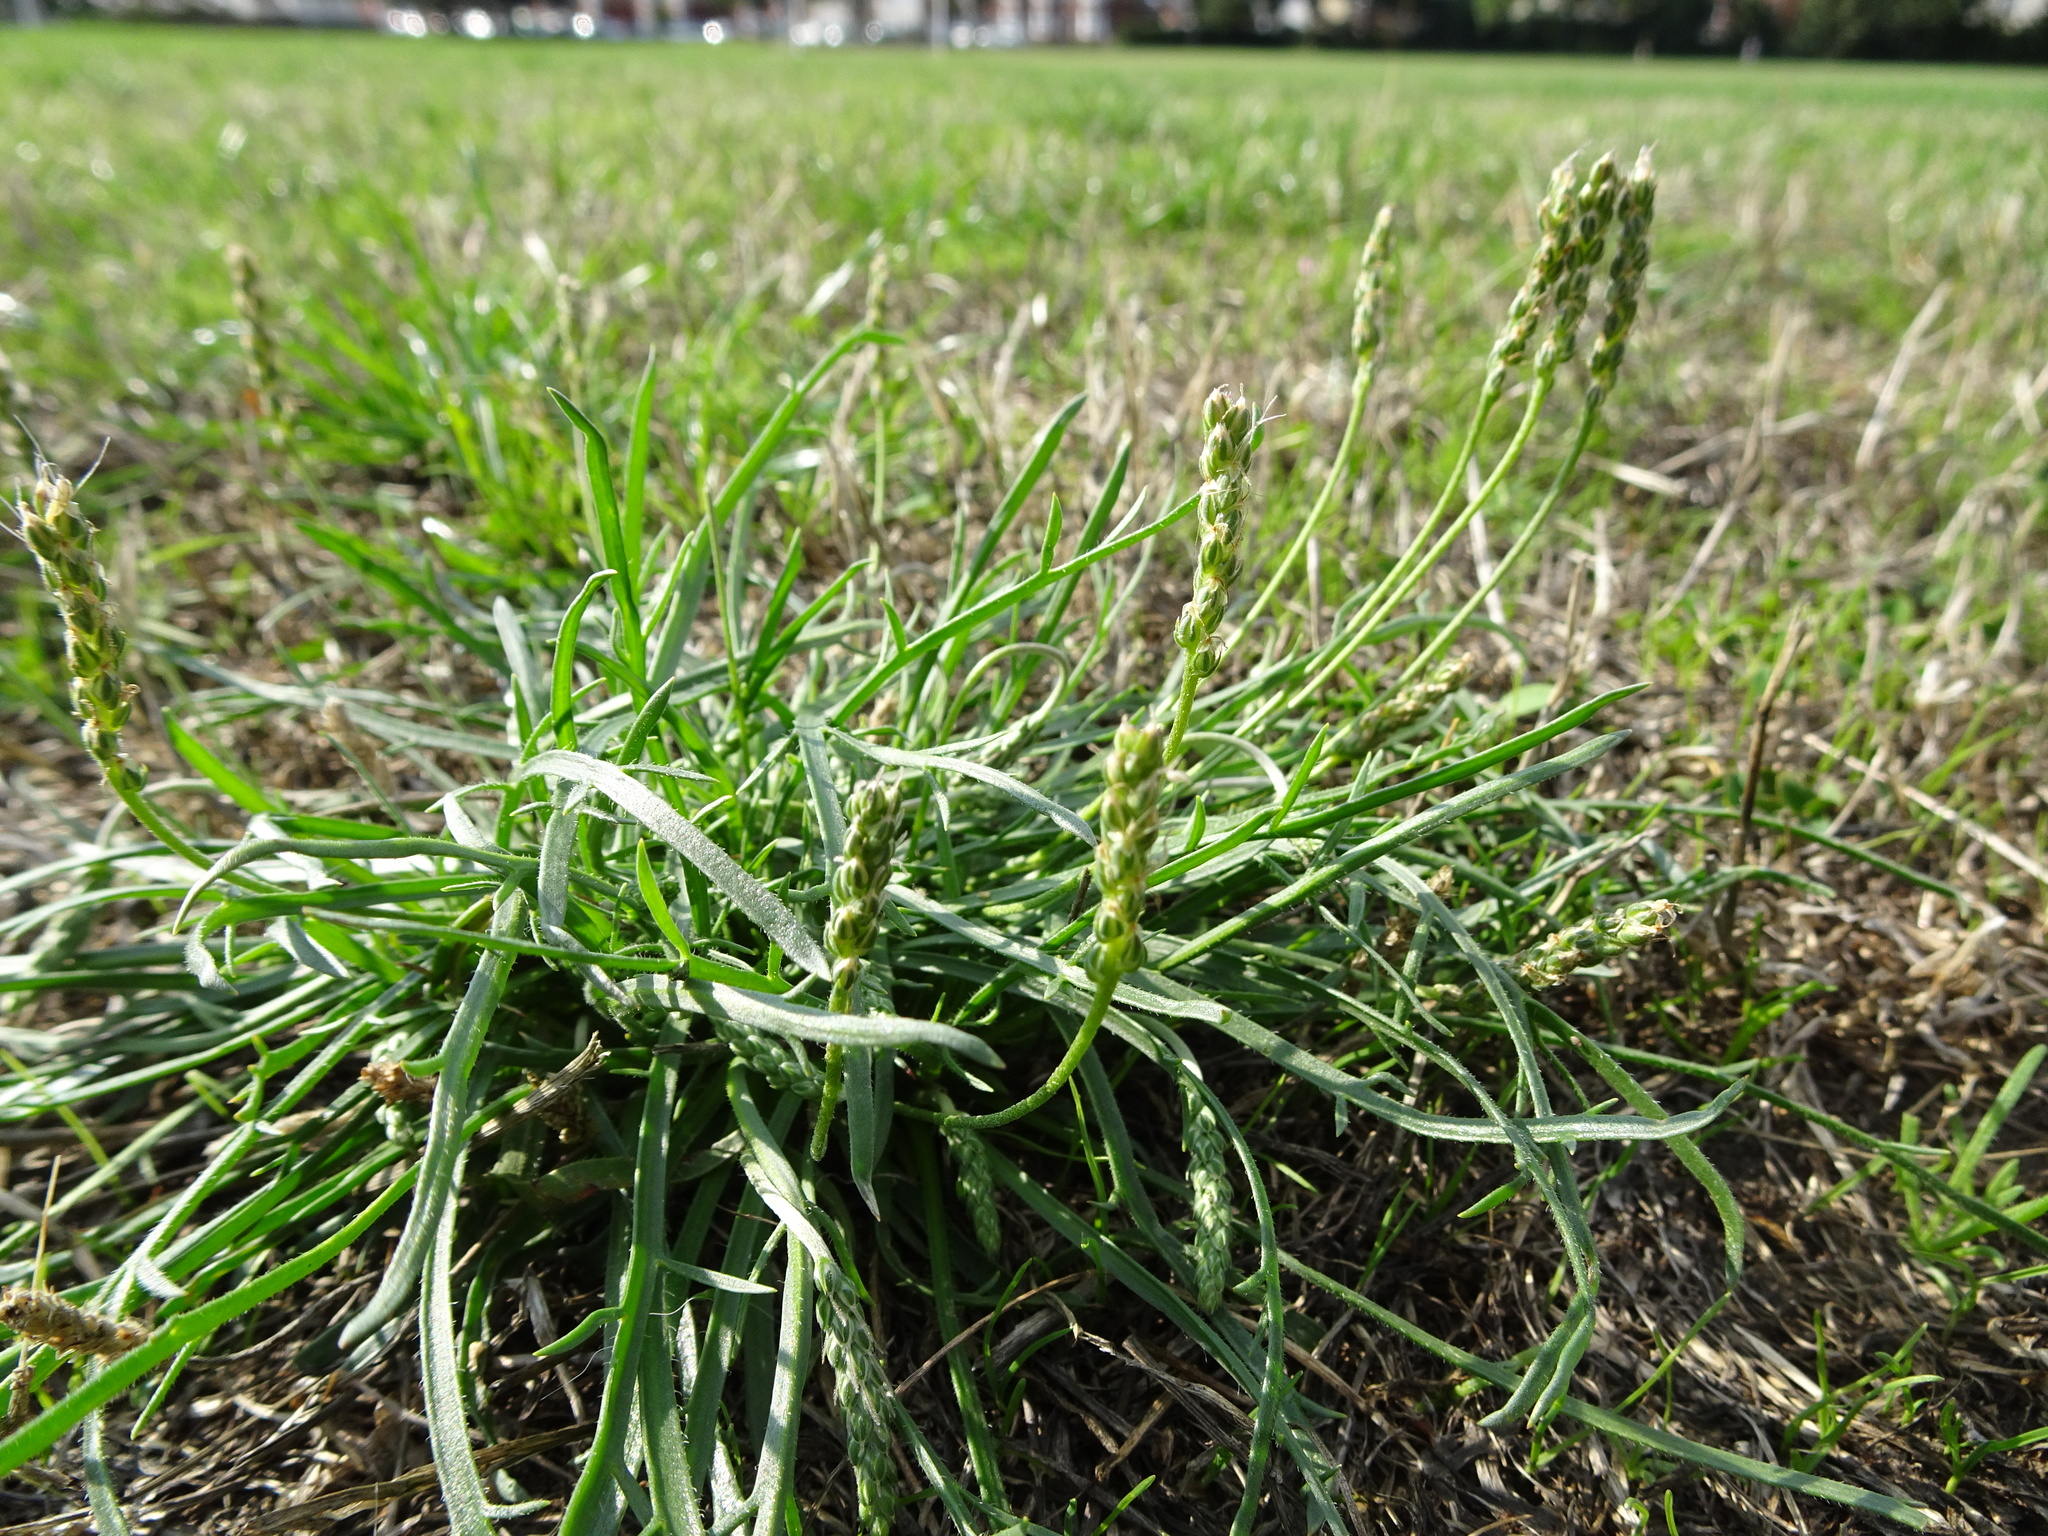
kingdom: Plantae
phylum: Tracheophyta
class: Magnoliopsida
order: Lamiales
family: Plantaginaceae
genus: Plantago
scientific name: Plantago coronopus
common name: Buck's-horn plantain
